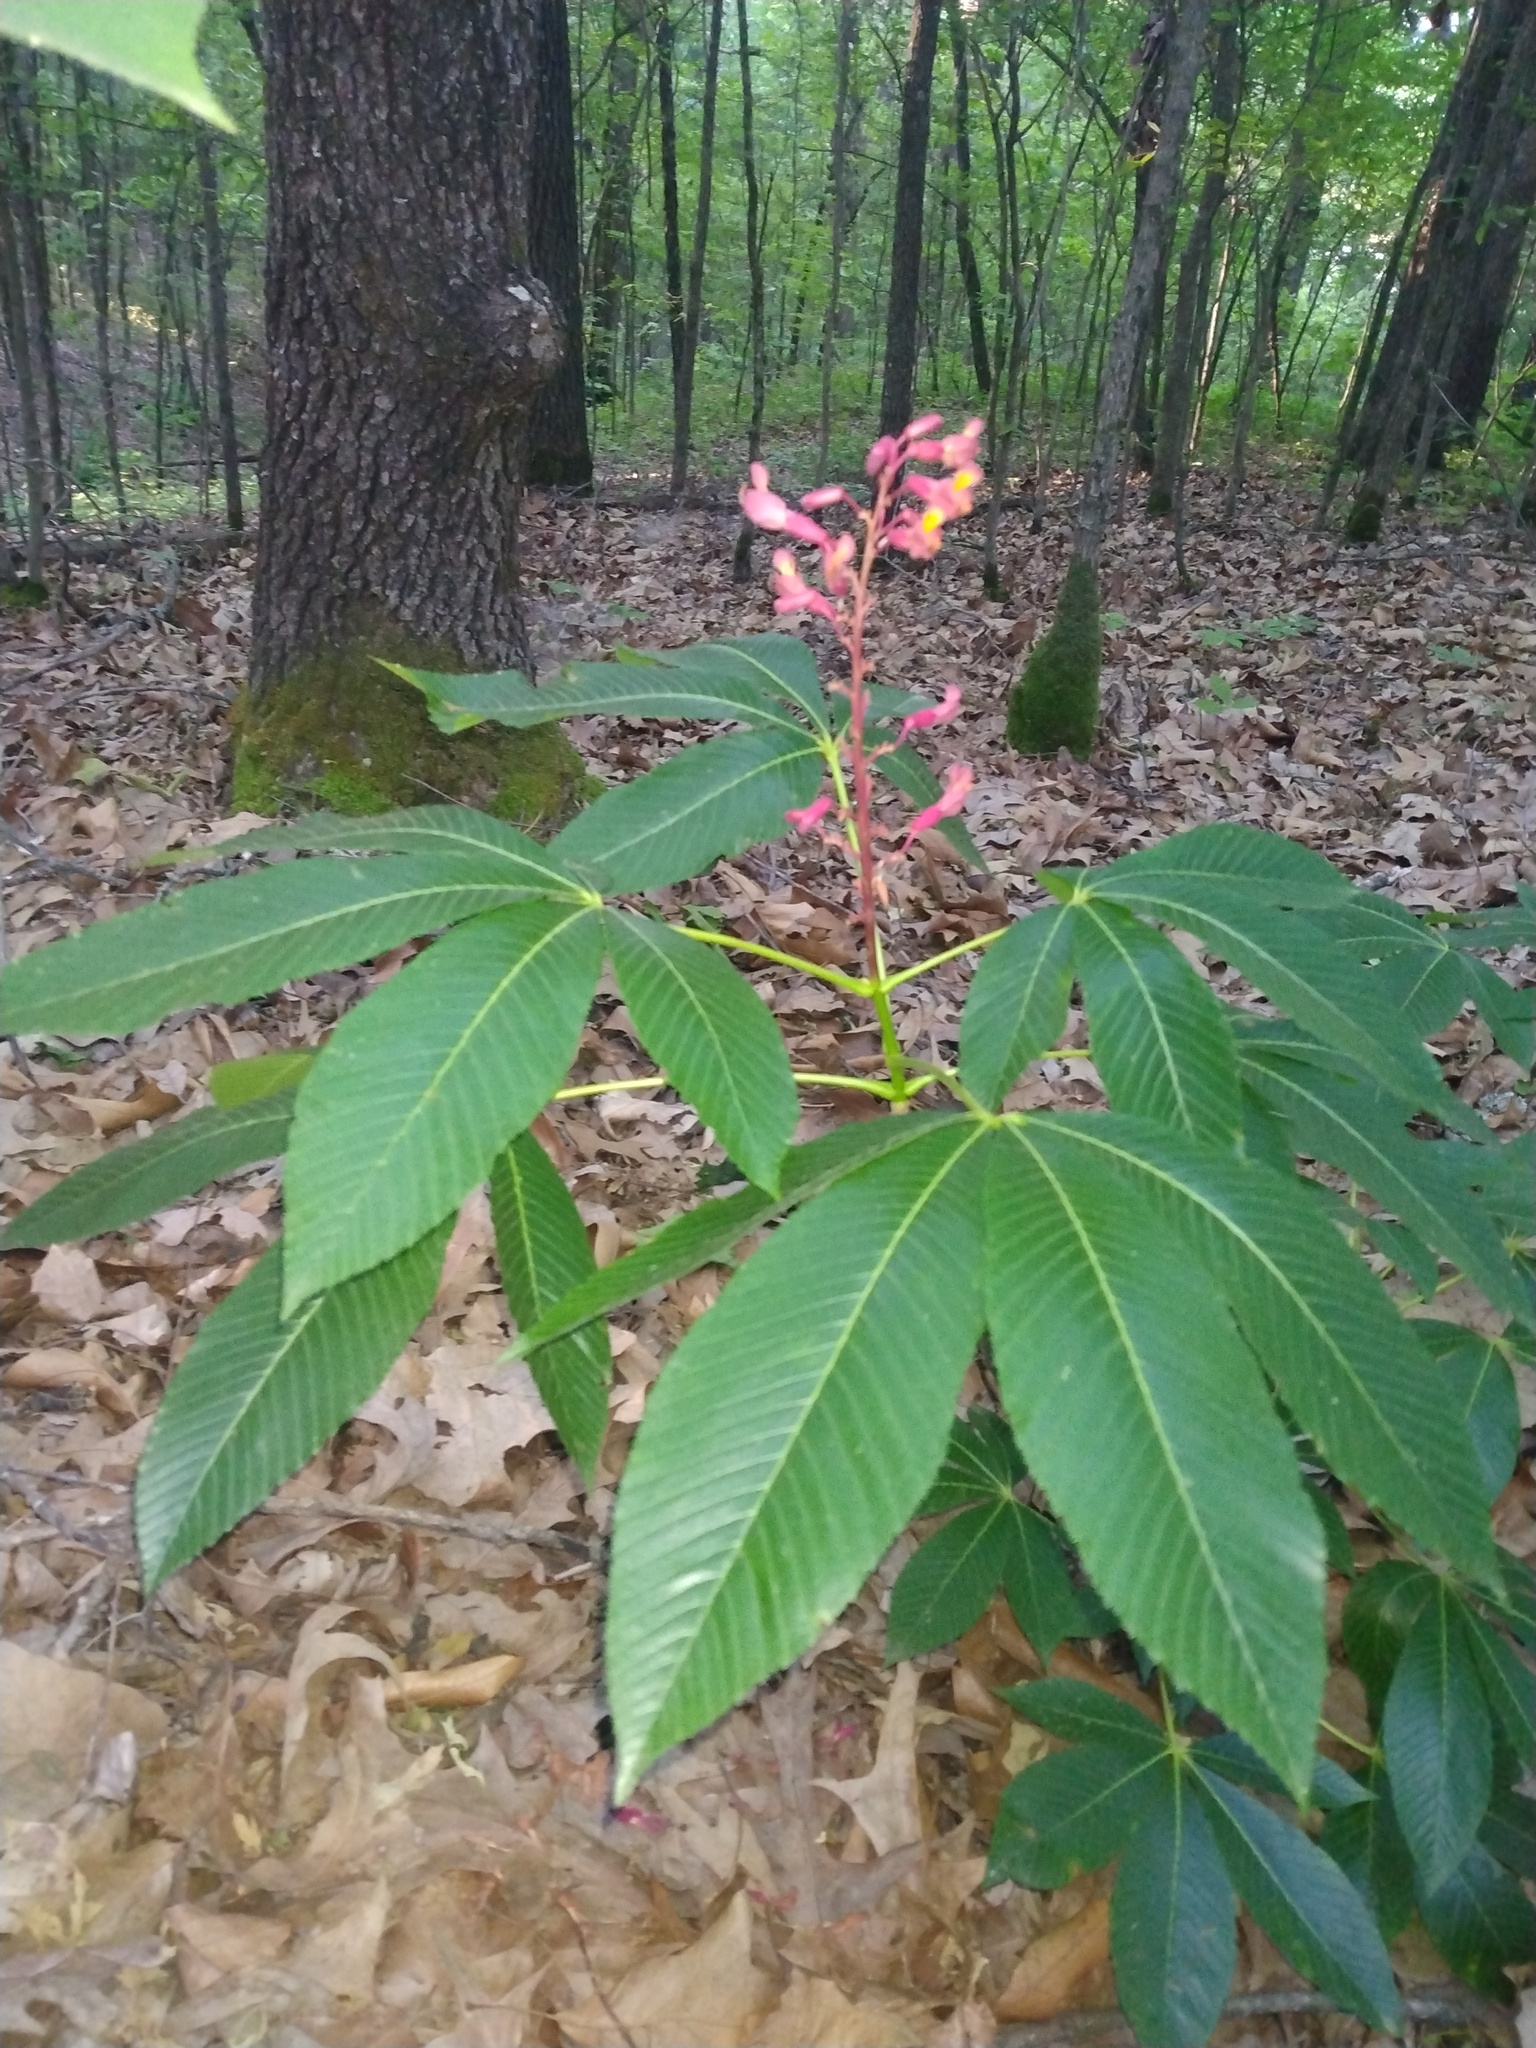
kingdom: Plantae
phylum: Tracheophyta
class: Magnoliopsida
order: Sapindales
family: Sapindaceae
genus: Aesculus
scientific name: Aesculus pavia
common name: Red buckeye
